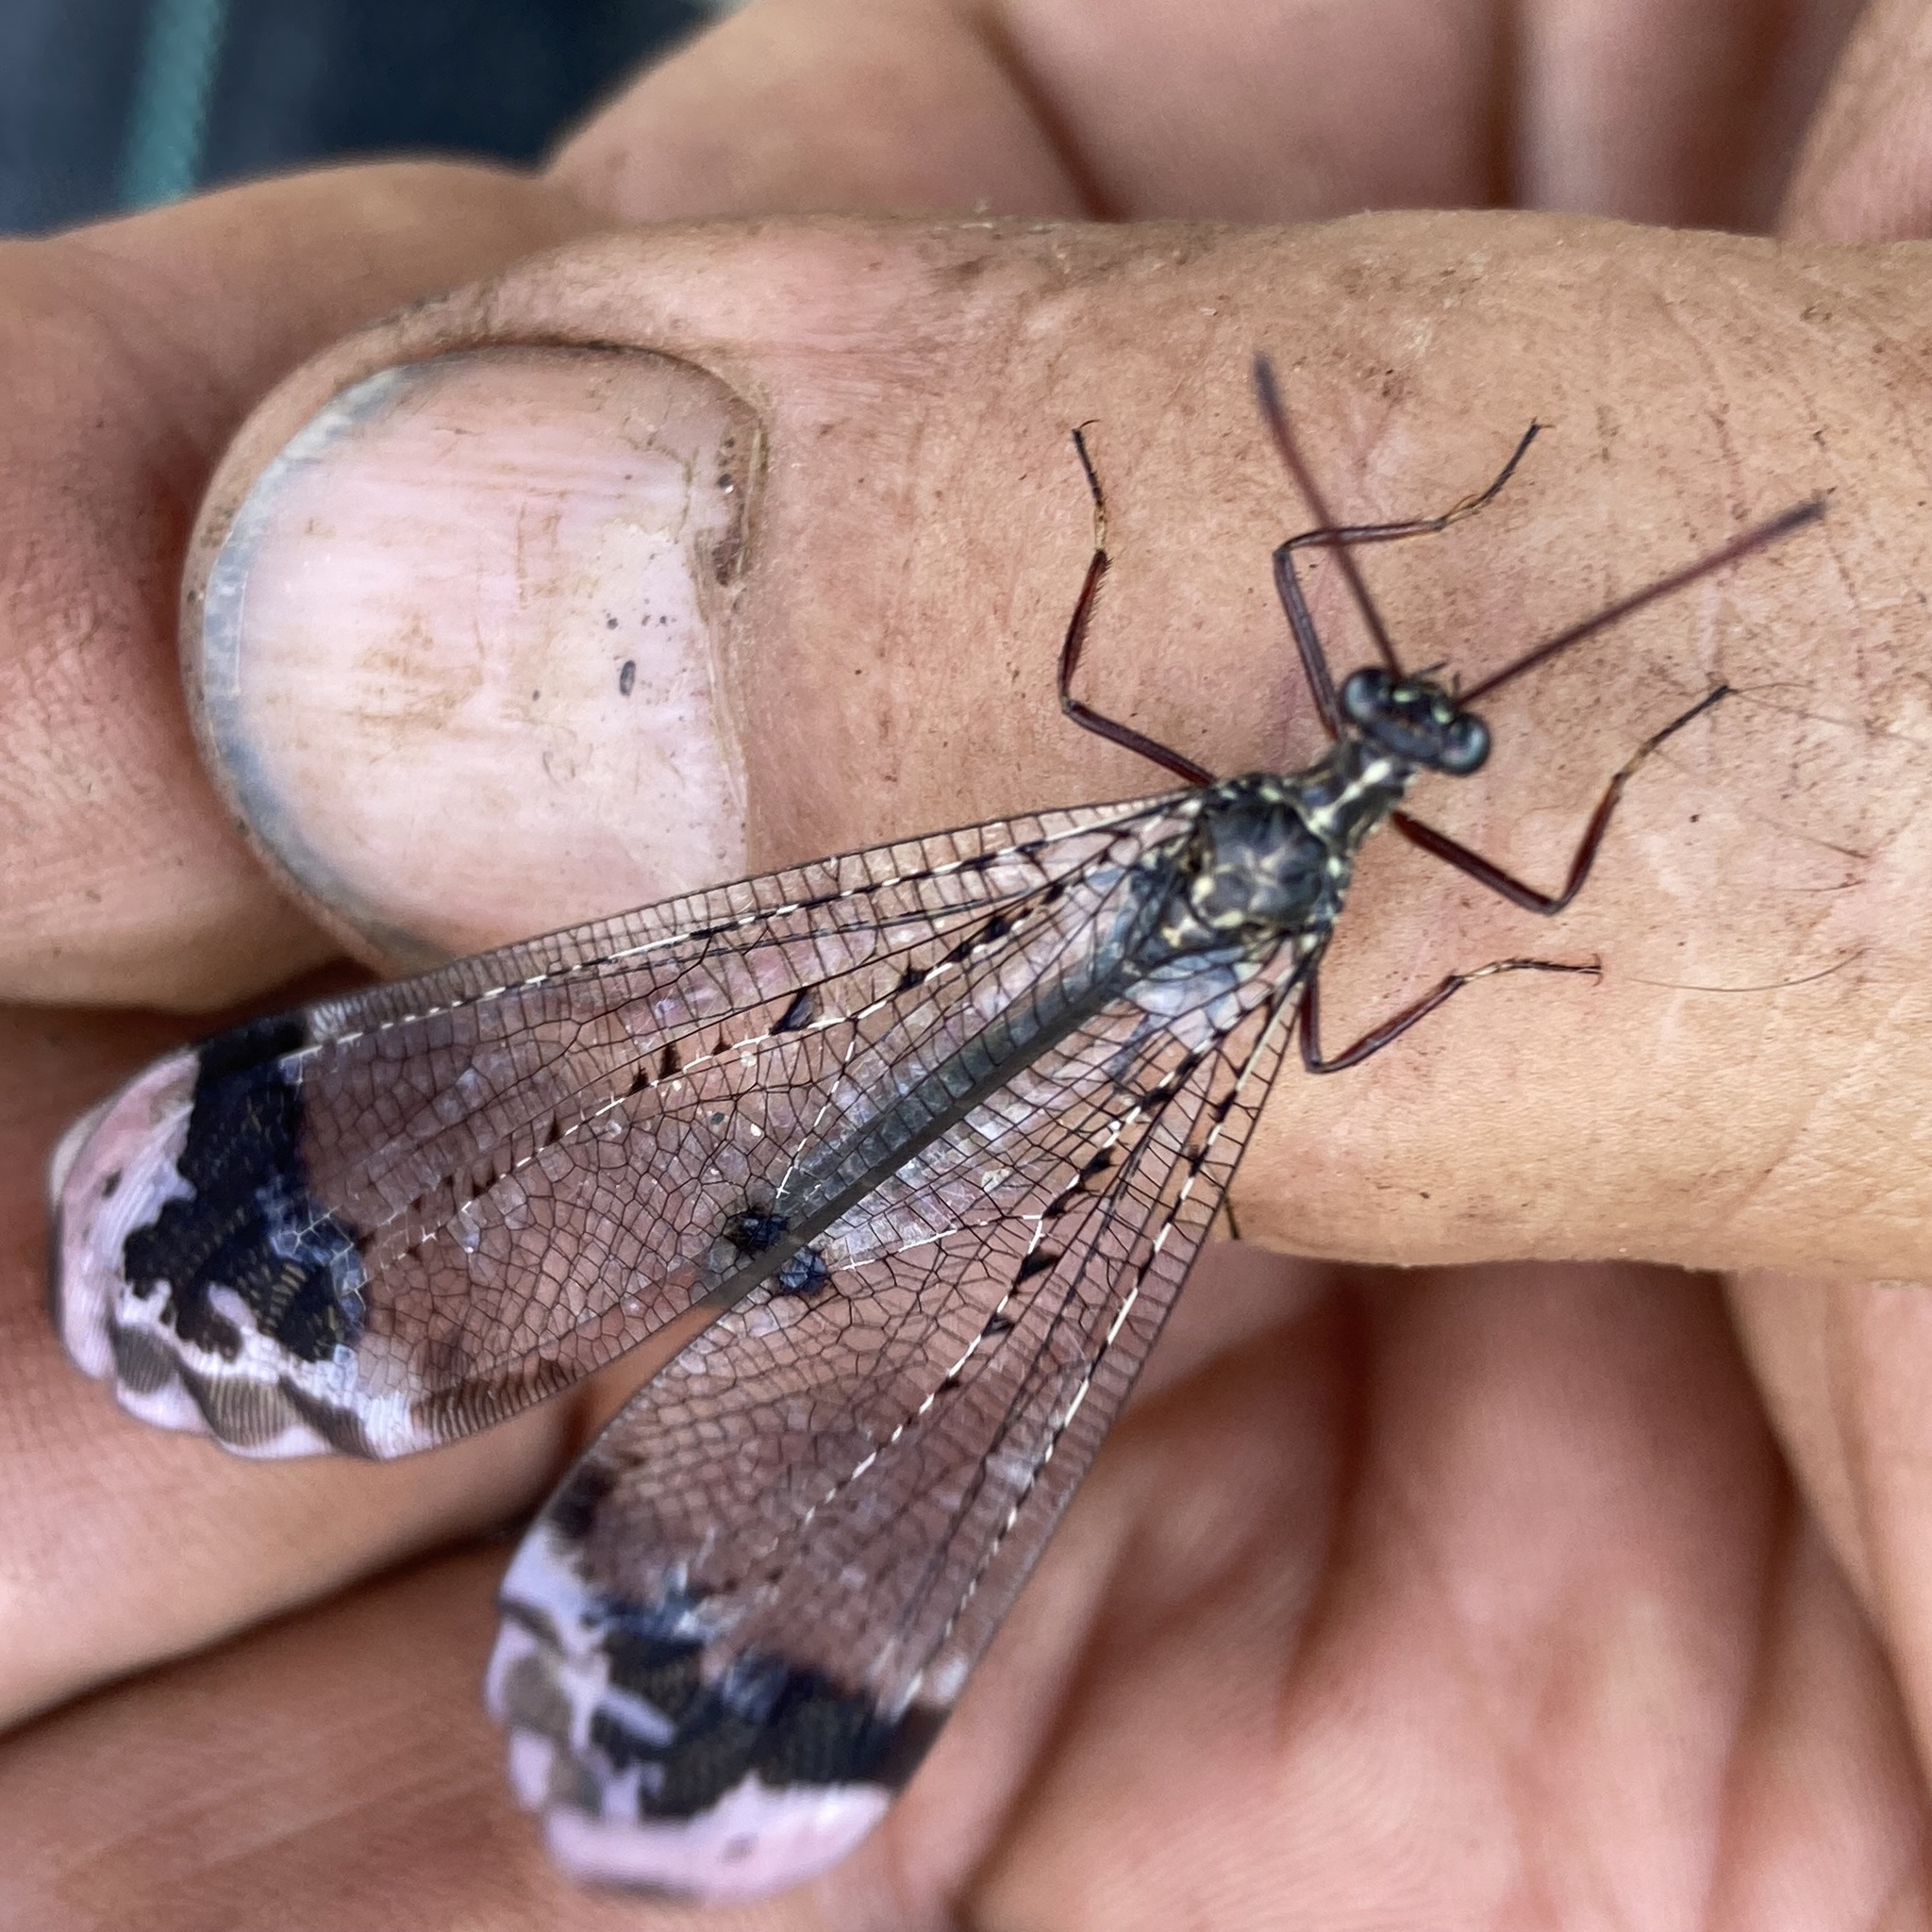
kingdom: Animalia
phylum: Arthropoda
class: Insecta
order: Neuroptera
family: Myrmeleontidae
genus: Glenurus
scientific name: Glenurus gratus
